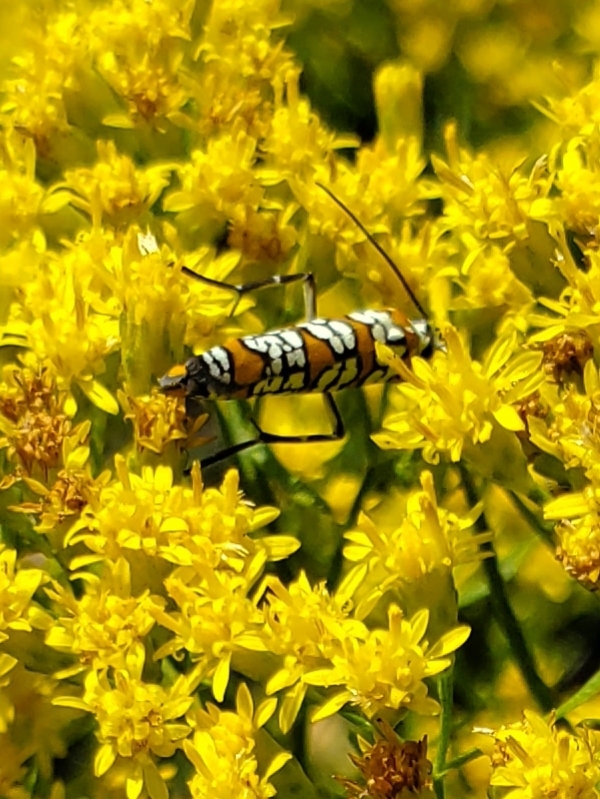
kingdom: Animalia
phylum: Arthropoda
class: Insecta
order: Lepidoptera
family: Attevidae
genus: Atteva
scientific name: Atteva punctella
